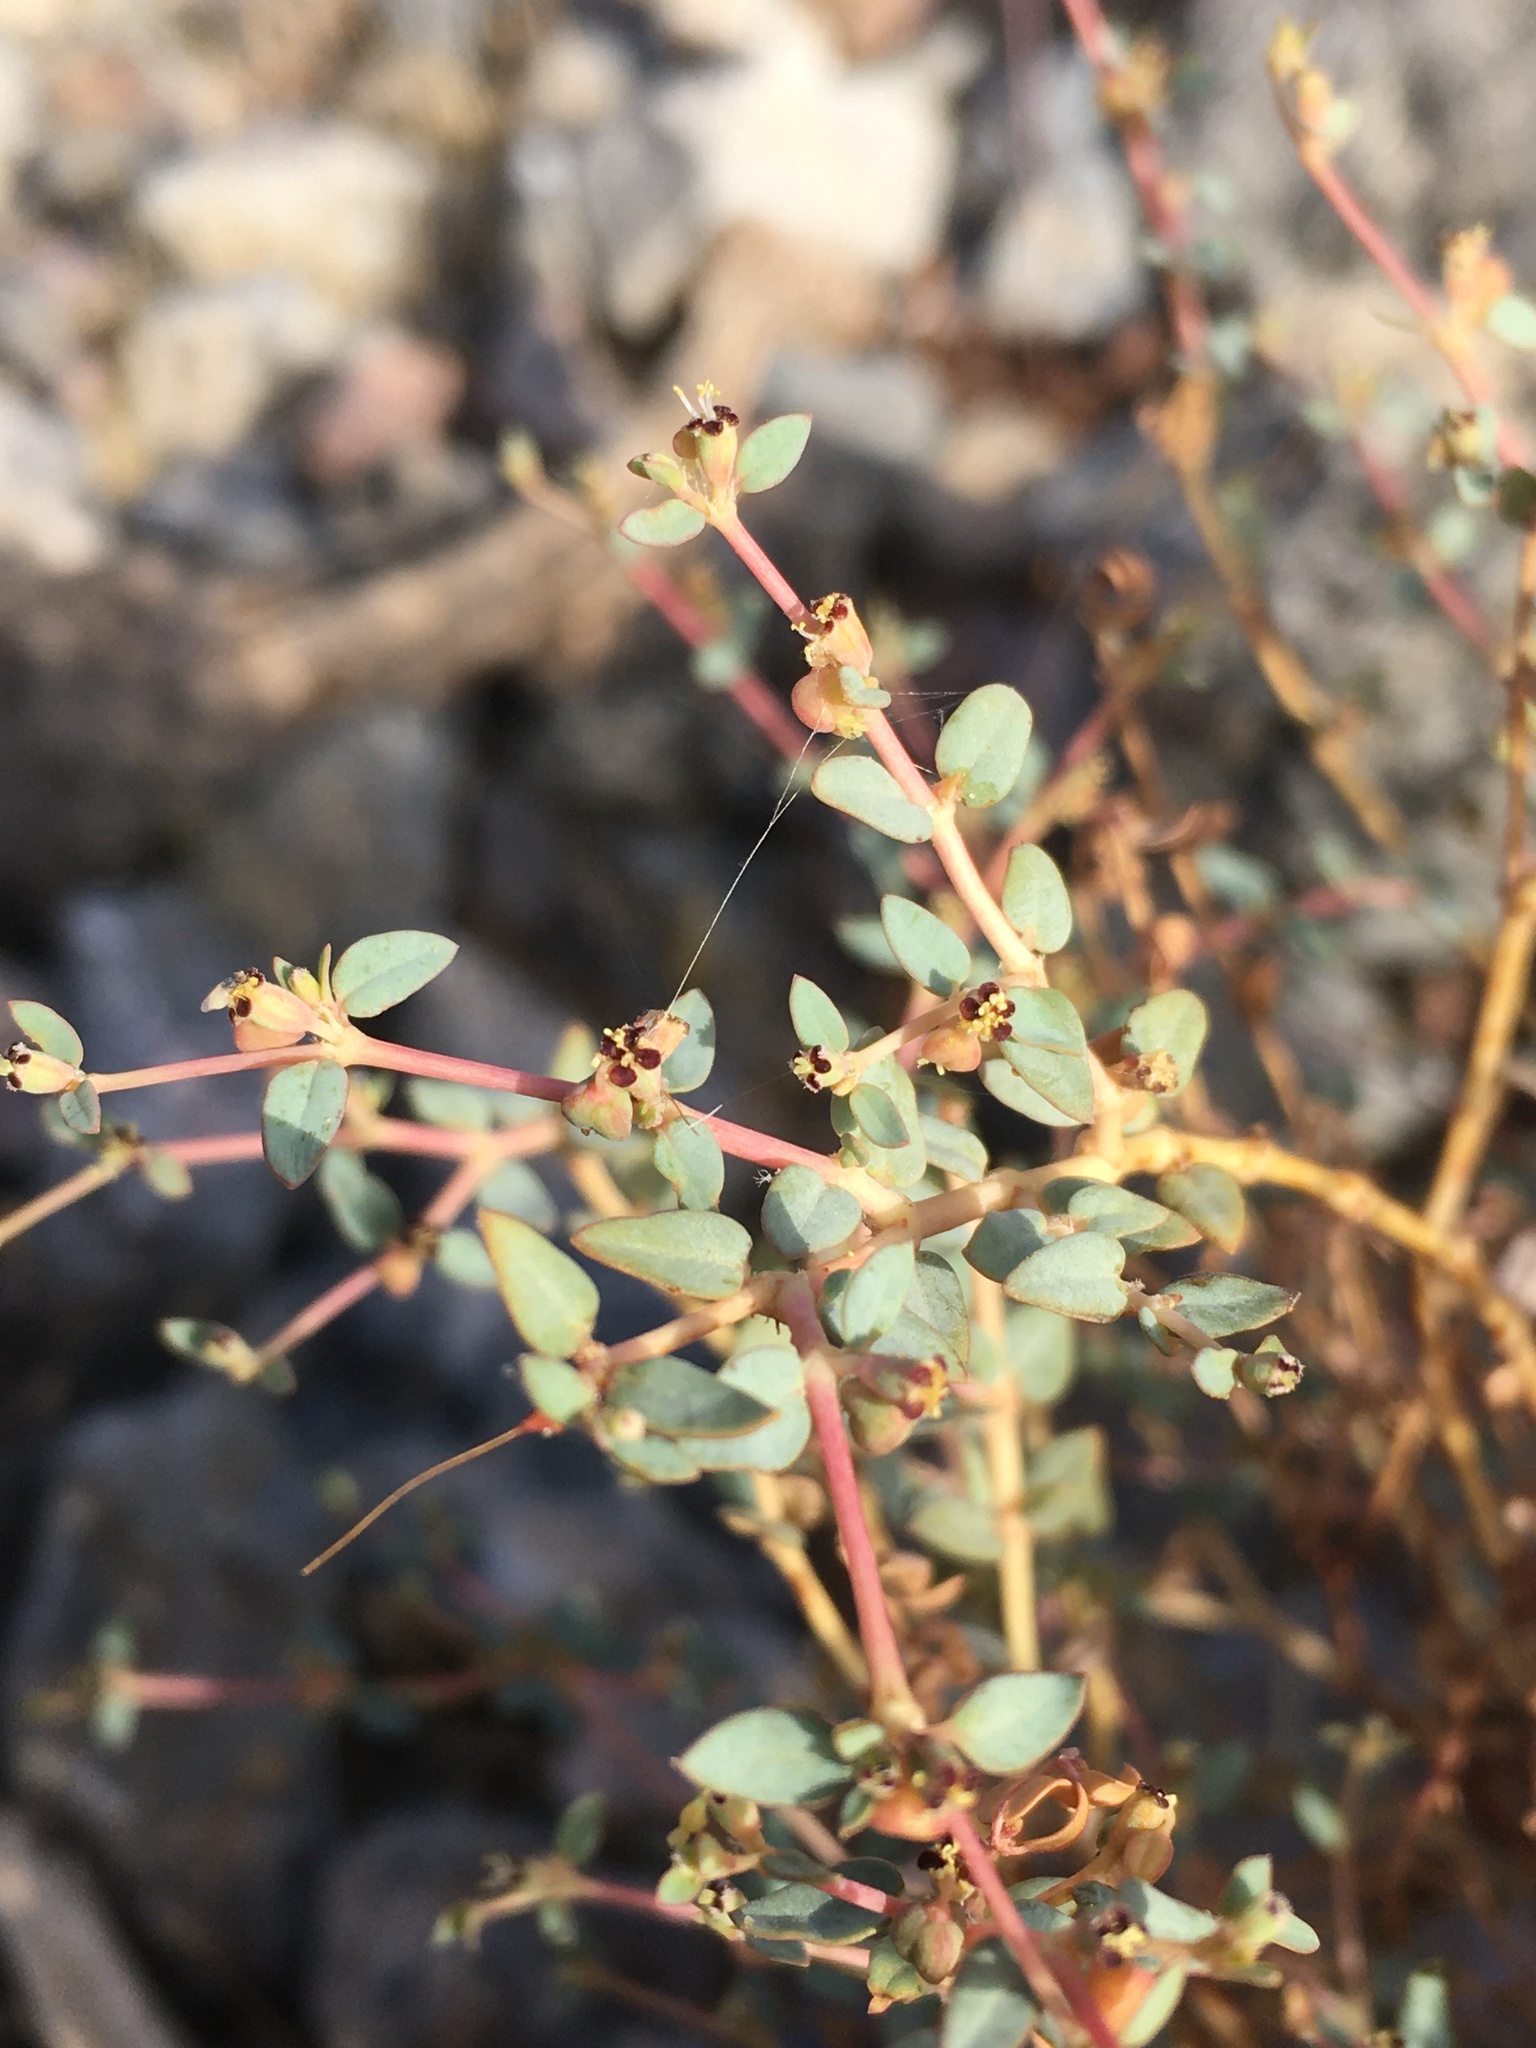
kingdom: Plantae
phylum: Tracheophyta
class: Magnoliopsida
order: Malpighiales
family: Euphorbiaceae
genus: Euphorbia
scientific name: Euphorbia parishii
